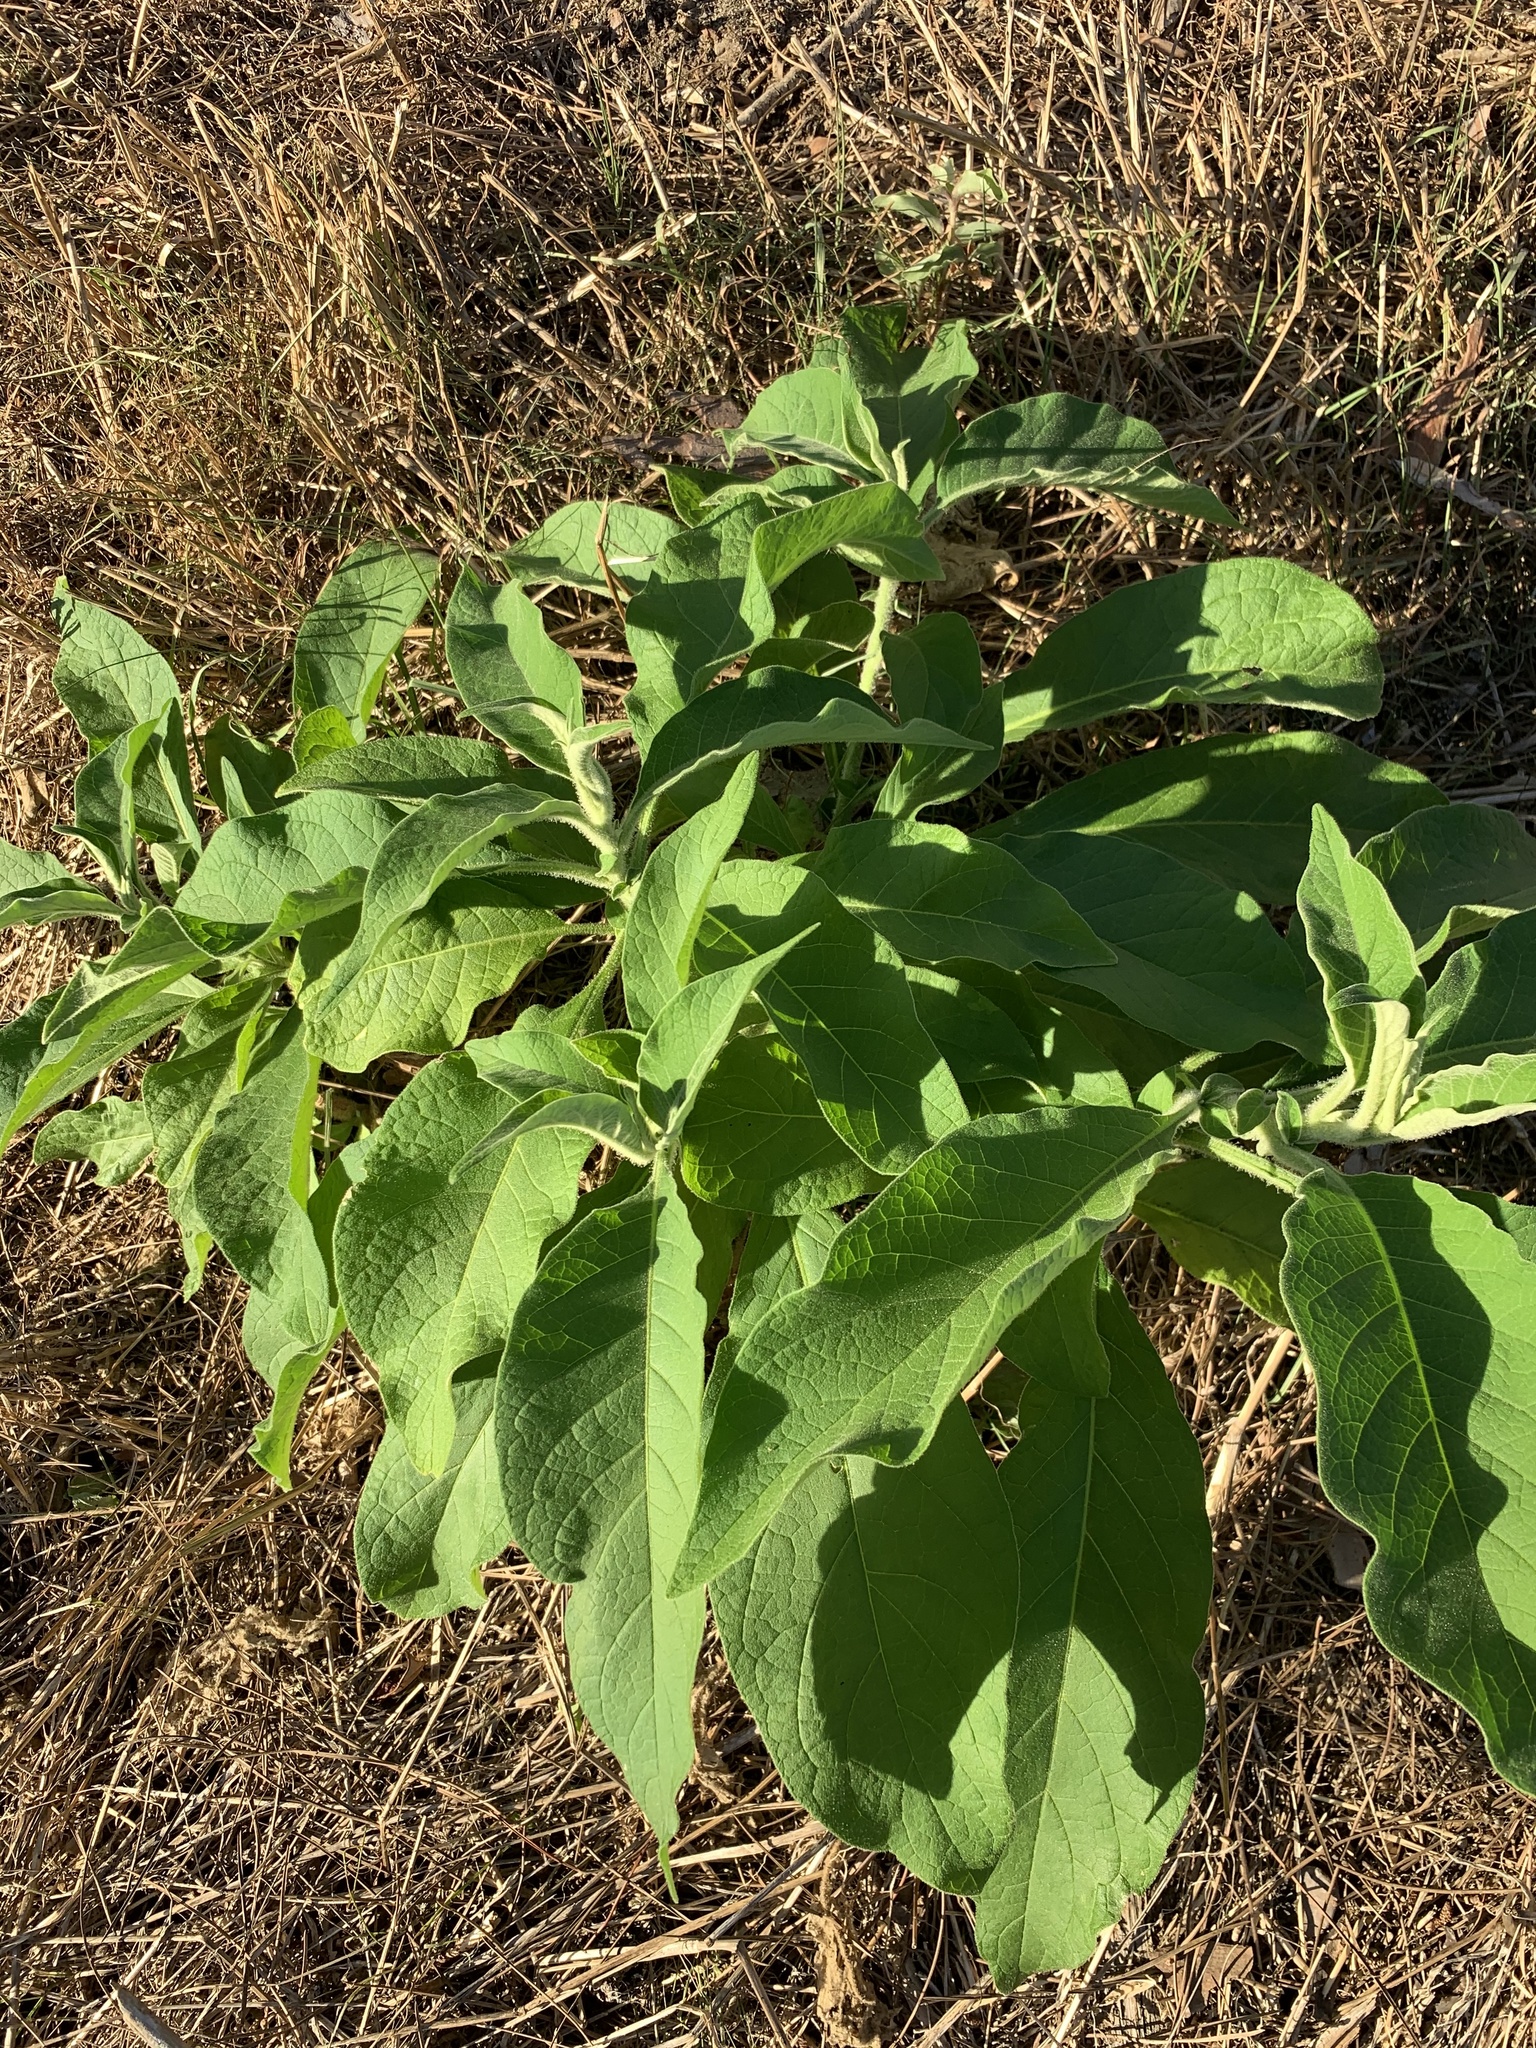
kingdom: Plantae
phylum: Tracheophyta
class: Magnoliopsida
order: Solanales
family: Solanaceae
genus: Solanum
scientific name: Solanum mauritianum
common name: Earleaf nightshade
